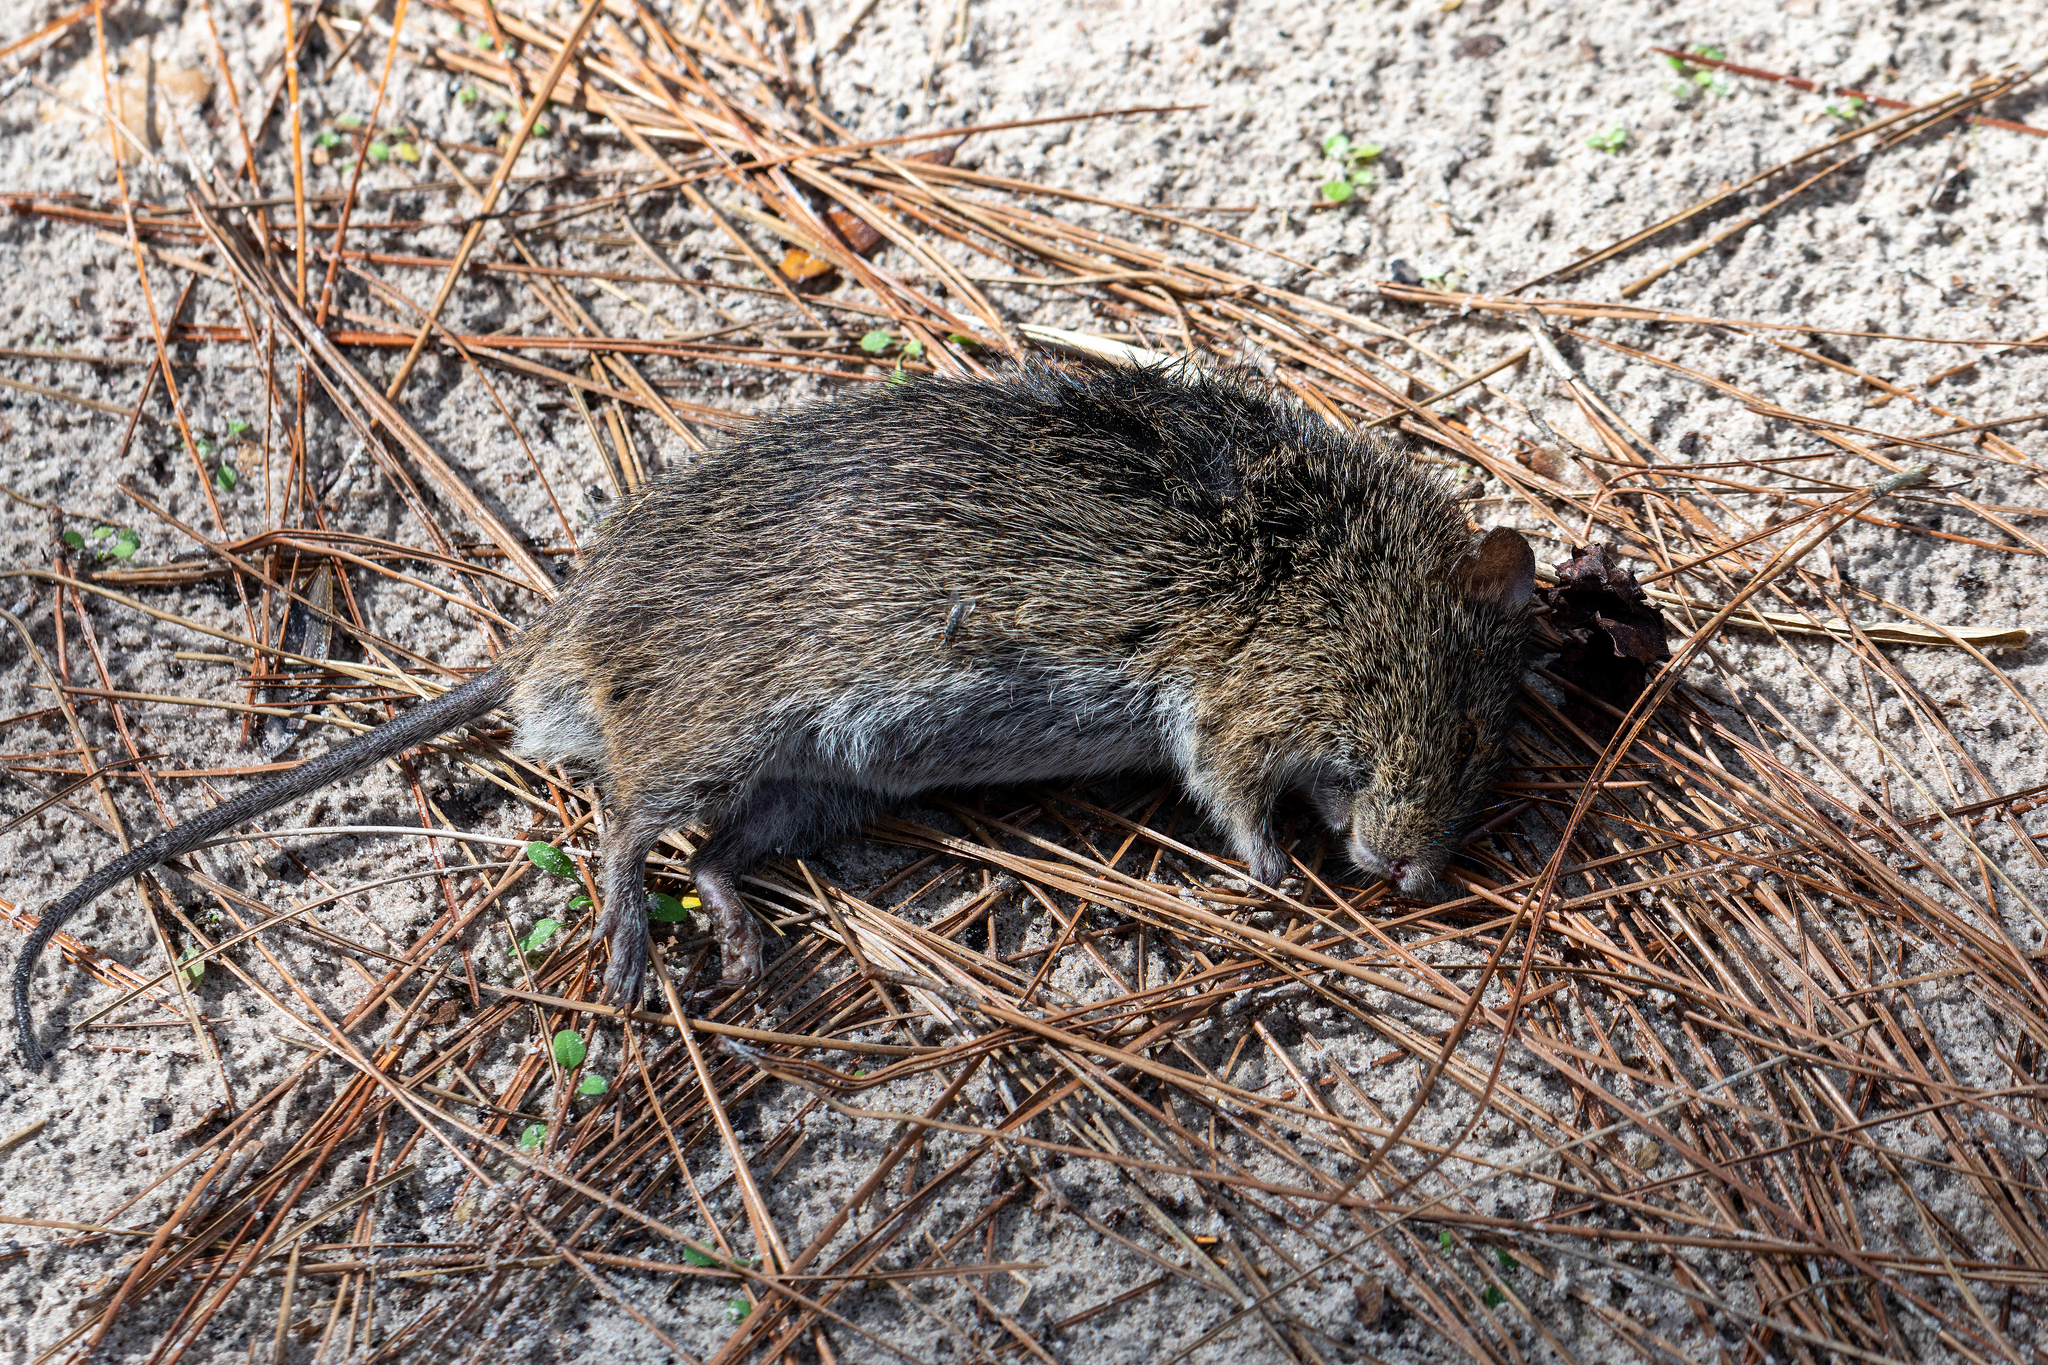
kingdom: Animalia
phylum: Chordata
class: Mammalia
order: Rodentia
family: Cricetidae
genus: Sigmodon
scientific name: Sigmodon hispidus
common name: Hispid cotton rat
